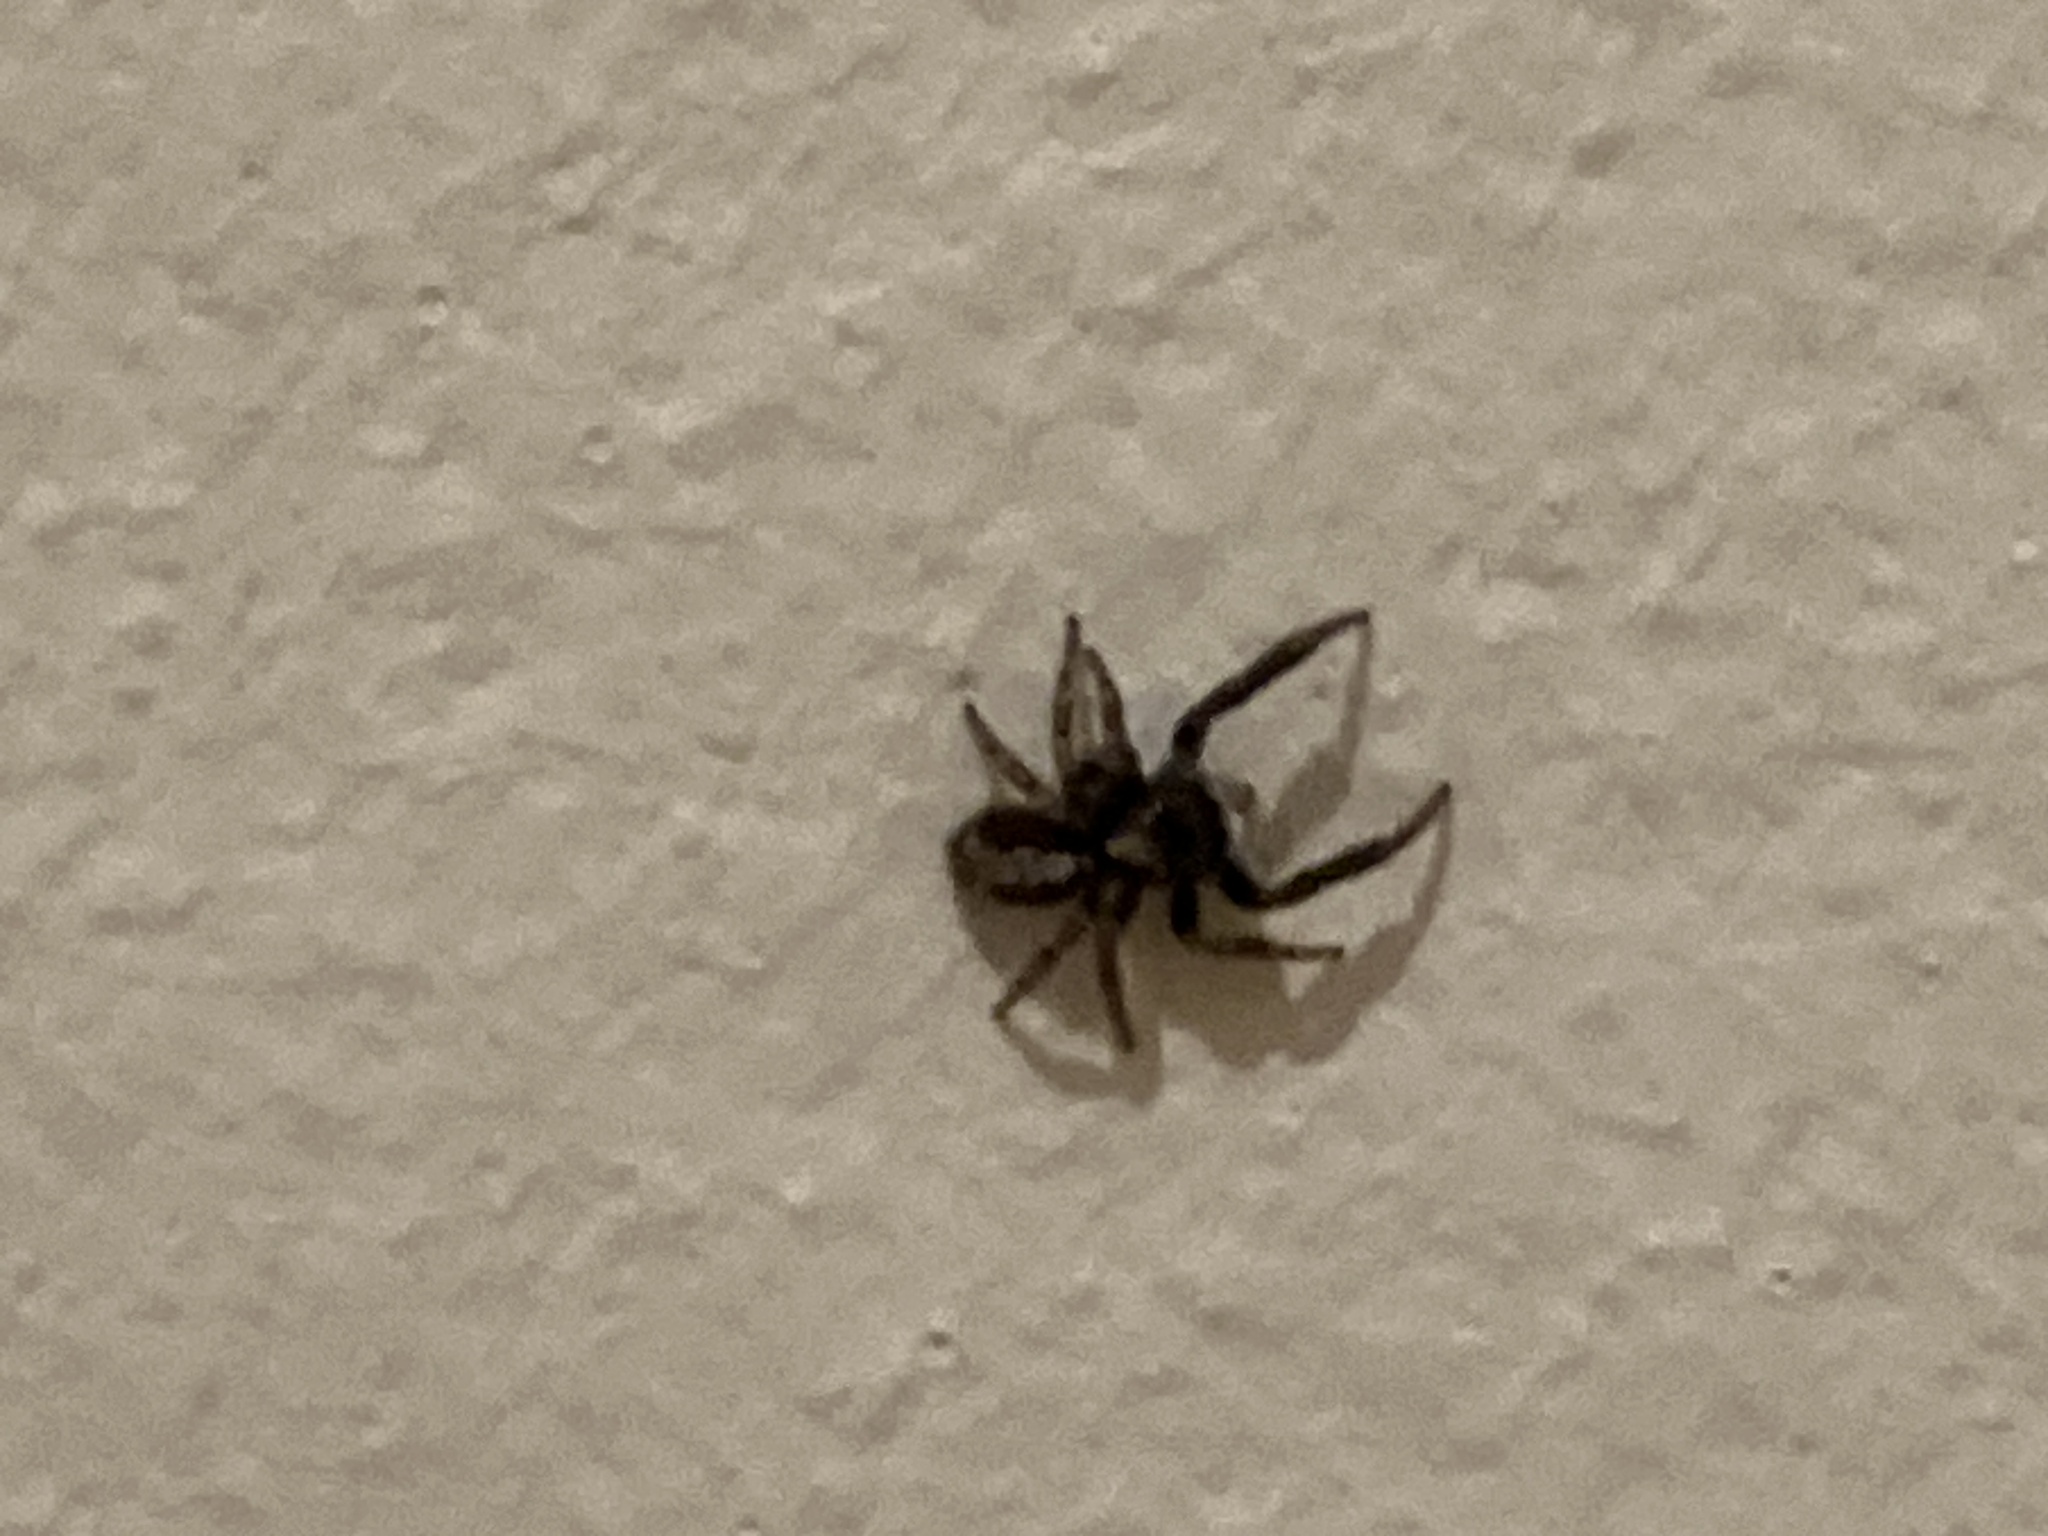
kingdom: Animalia
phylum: Arthropoda
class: Arachnida
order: Araneae
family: Salticidae
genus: Pseudeuophrys
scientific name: Pseudeuophrys lanigera
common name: Jumping spider
